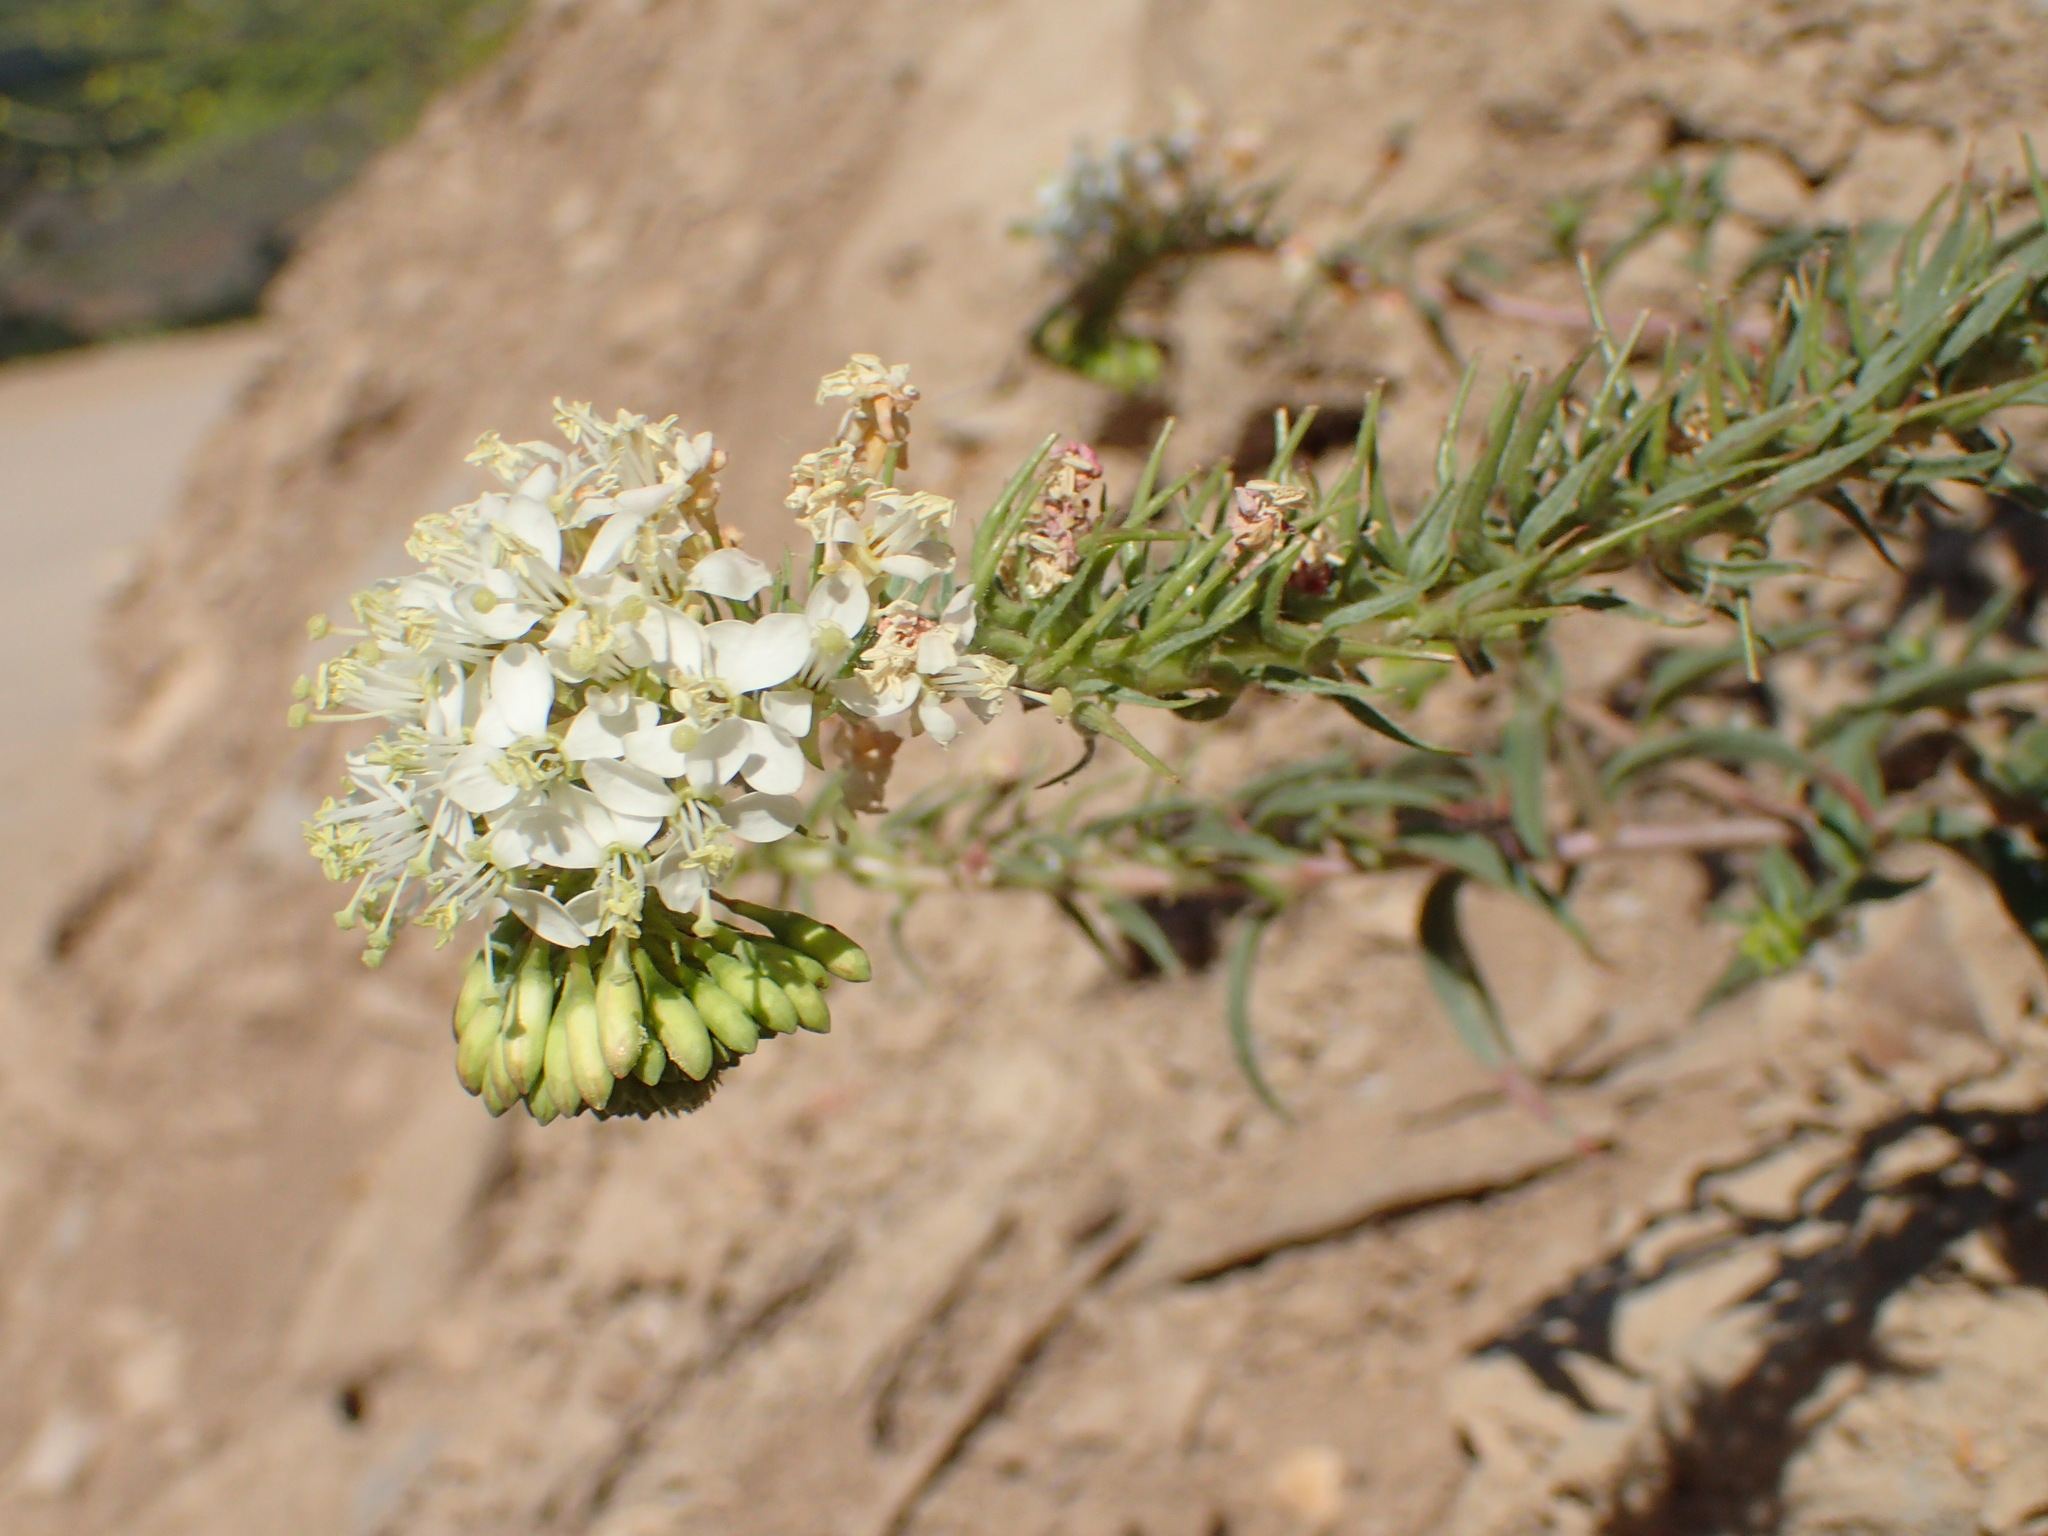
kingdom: Plantae
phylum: Tracheophyta
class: Magnoliopsida
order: Myrtales
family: Onagraceae
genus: Eremothera
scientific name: Eremothera boothii
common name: Booth's evening primrose
